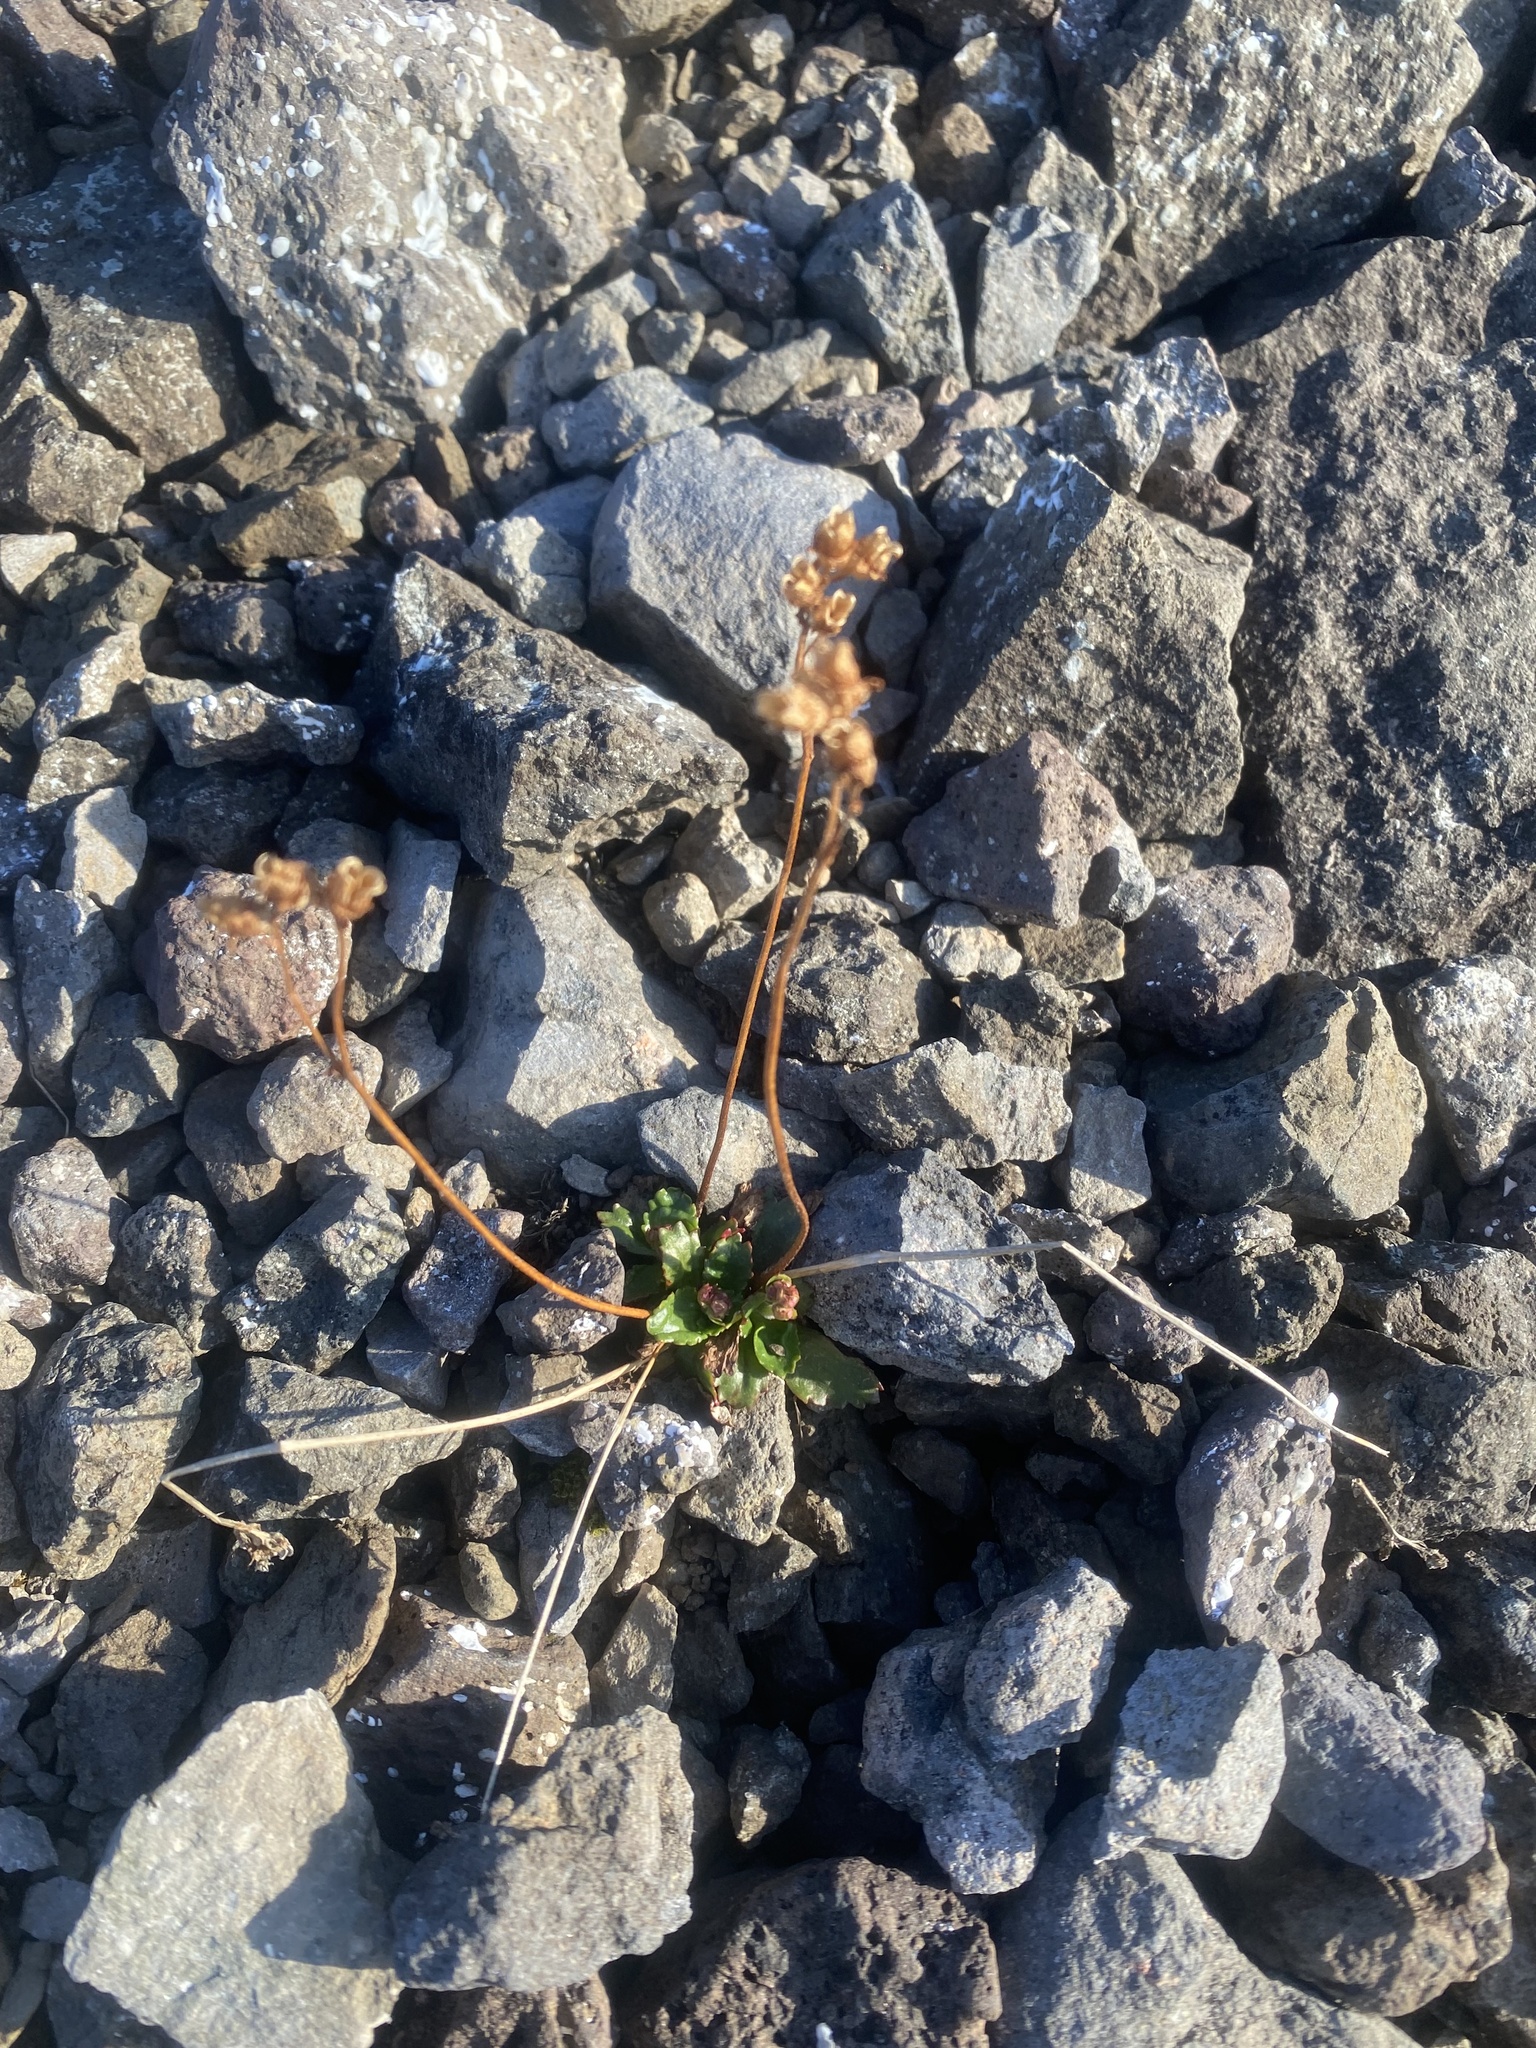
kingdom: Plantae
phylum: Tracheophyta
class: Magnoliopsida
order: Saxifragales
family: Saxifragaceae
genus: Micranthes
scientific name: Micranthes tenuis
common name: Ottertail pass saxifrage
